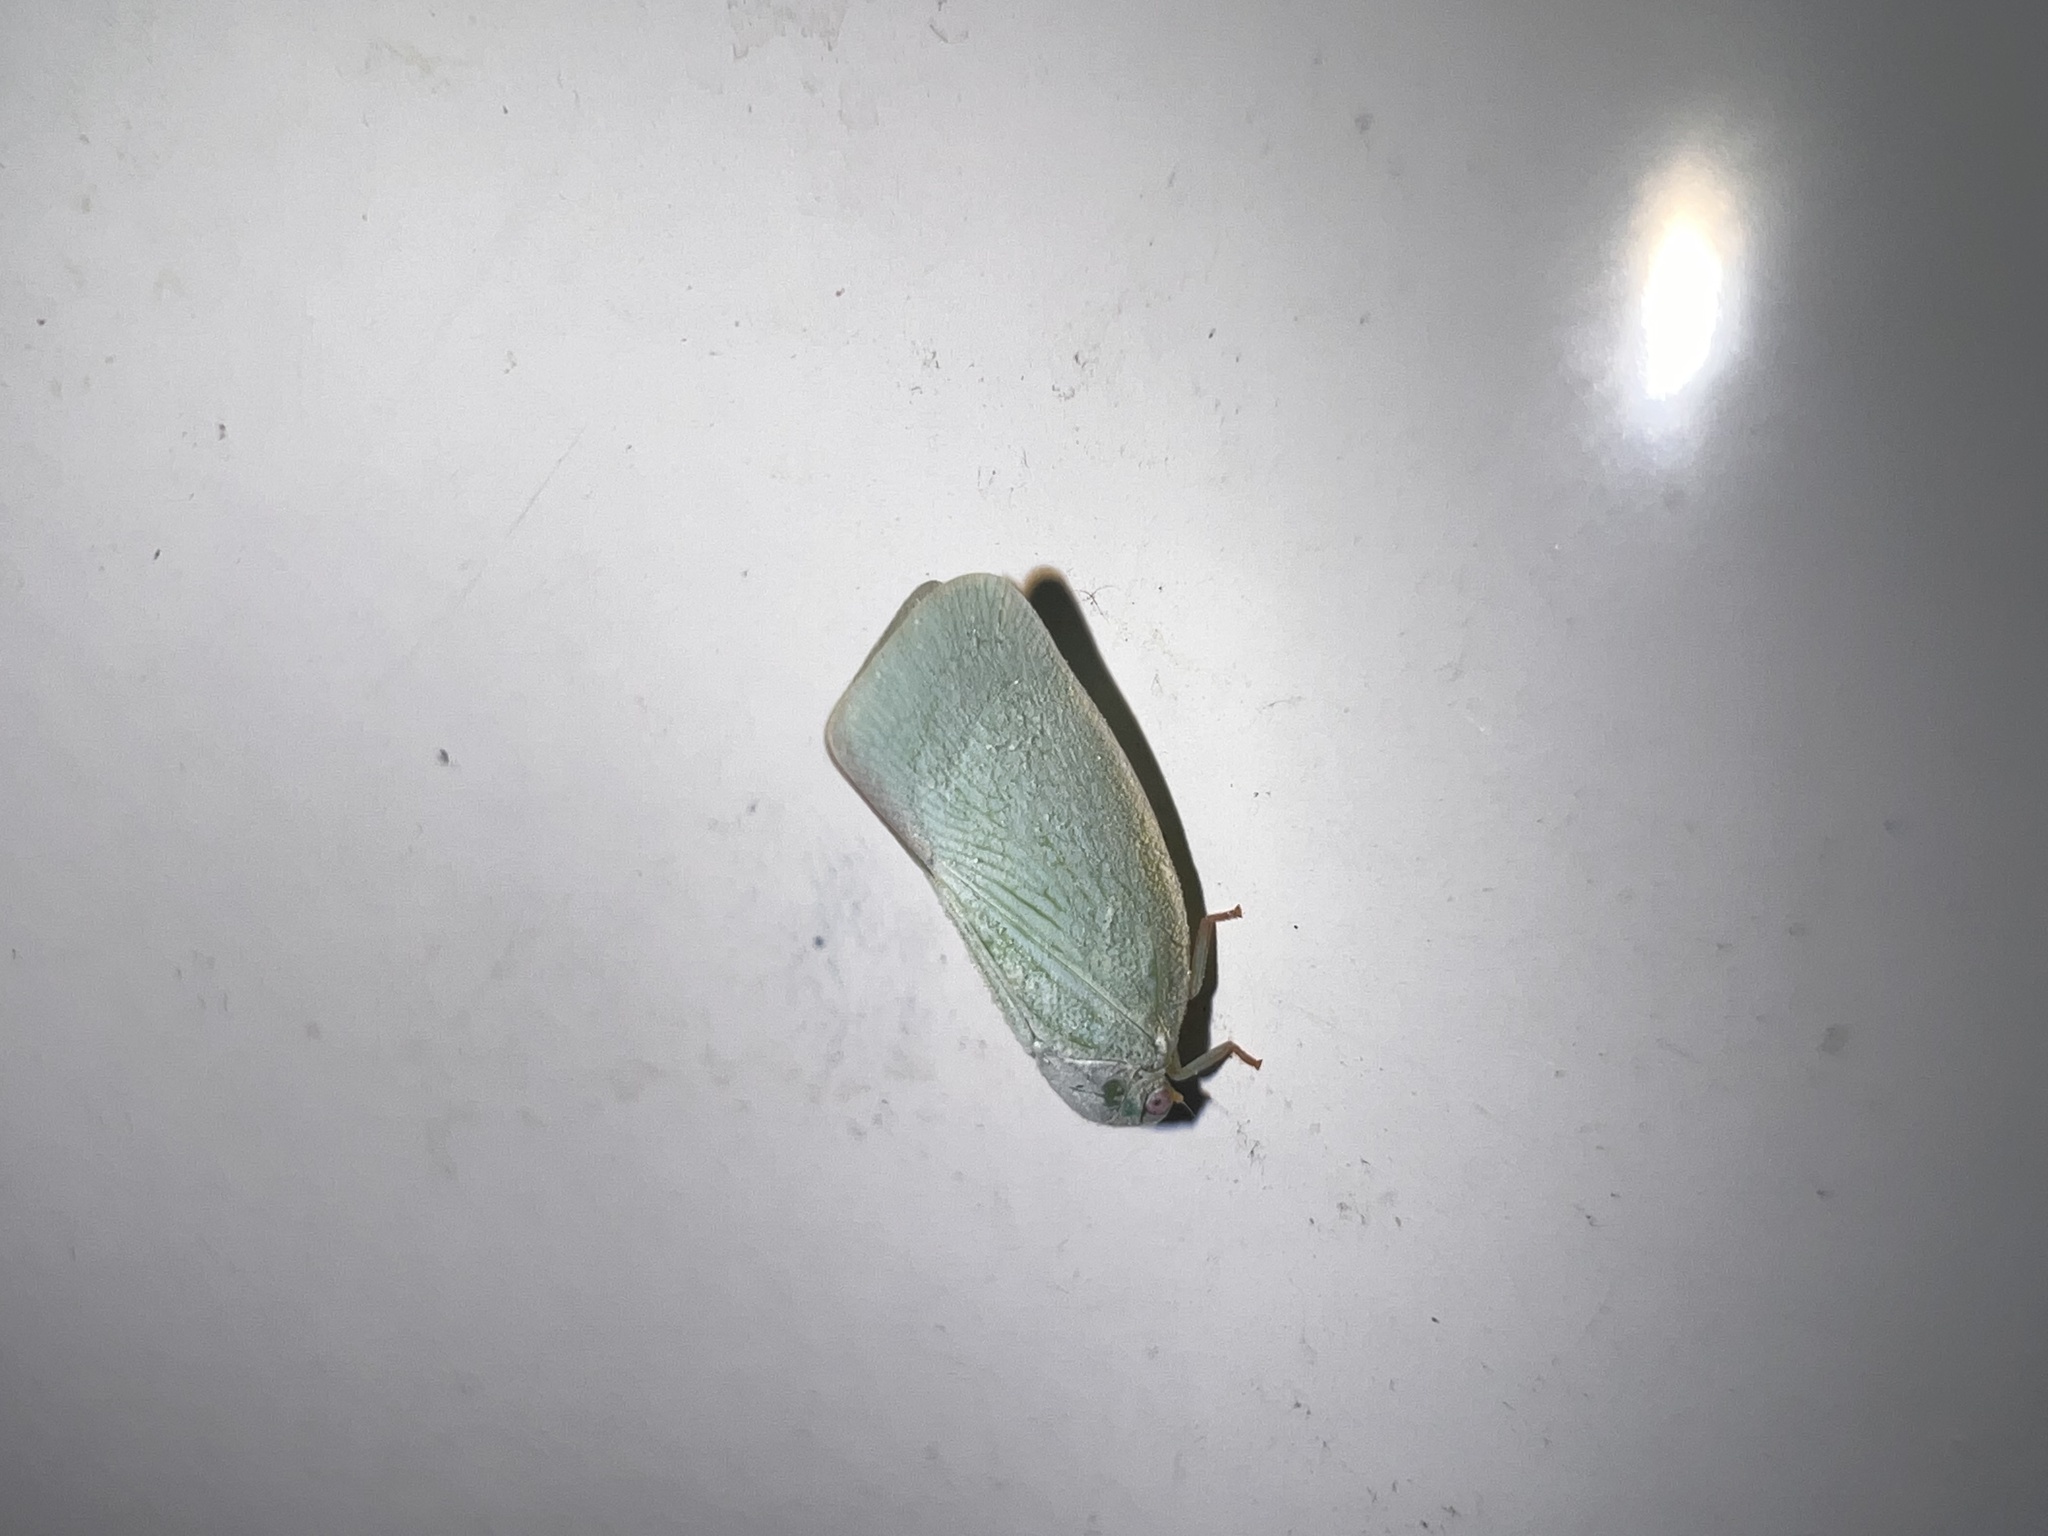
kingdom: Animalia
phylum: Arthropoda
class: Insecta
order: Hemiptera
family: Flatidae
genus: Flatormenis
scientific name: Flatormenis proxima
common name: Northern flatid planthopper
